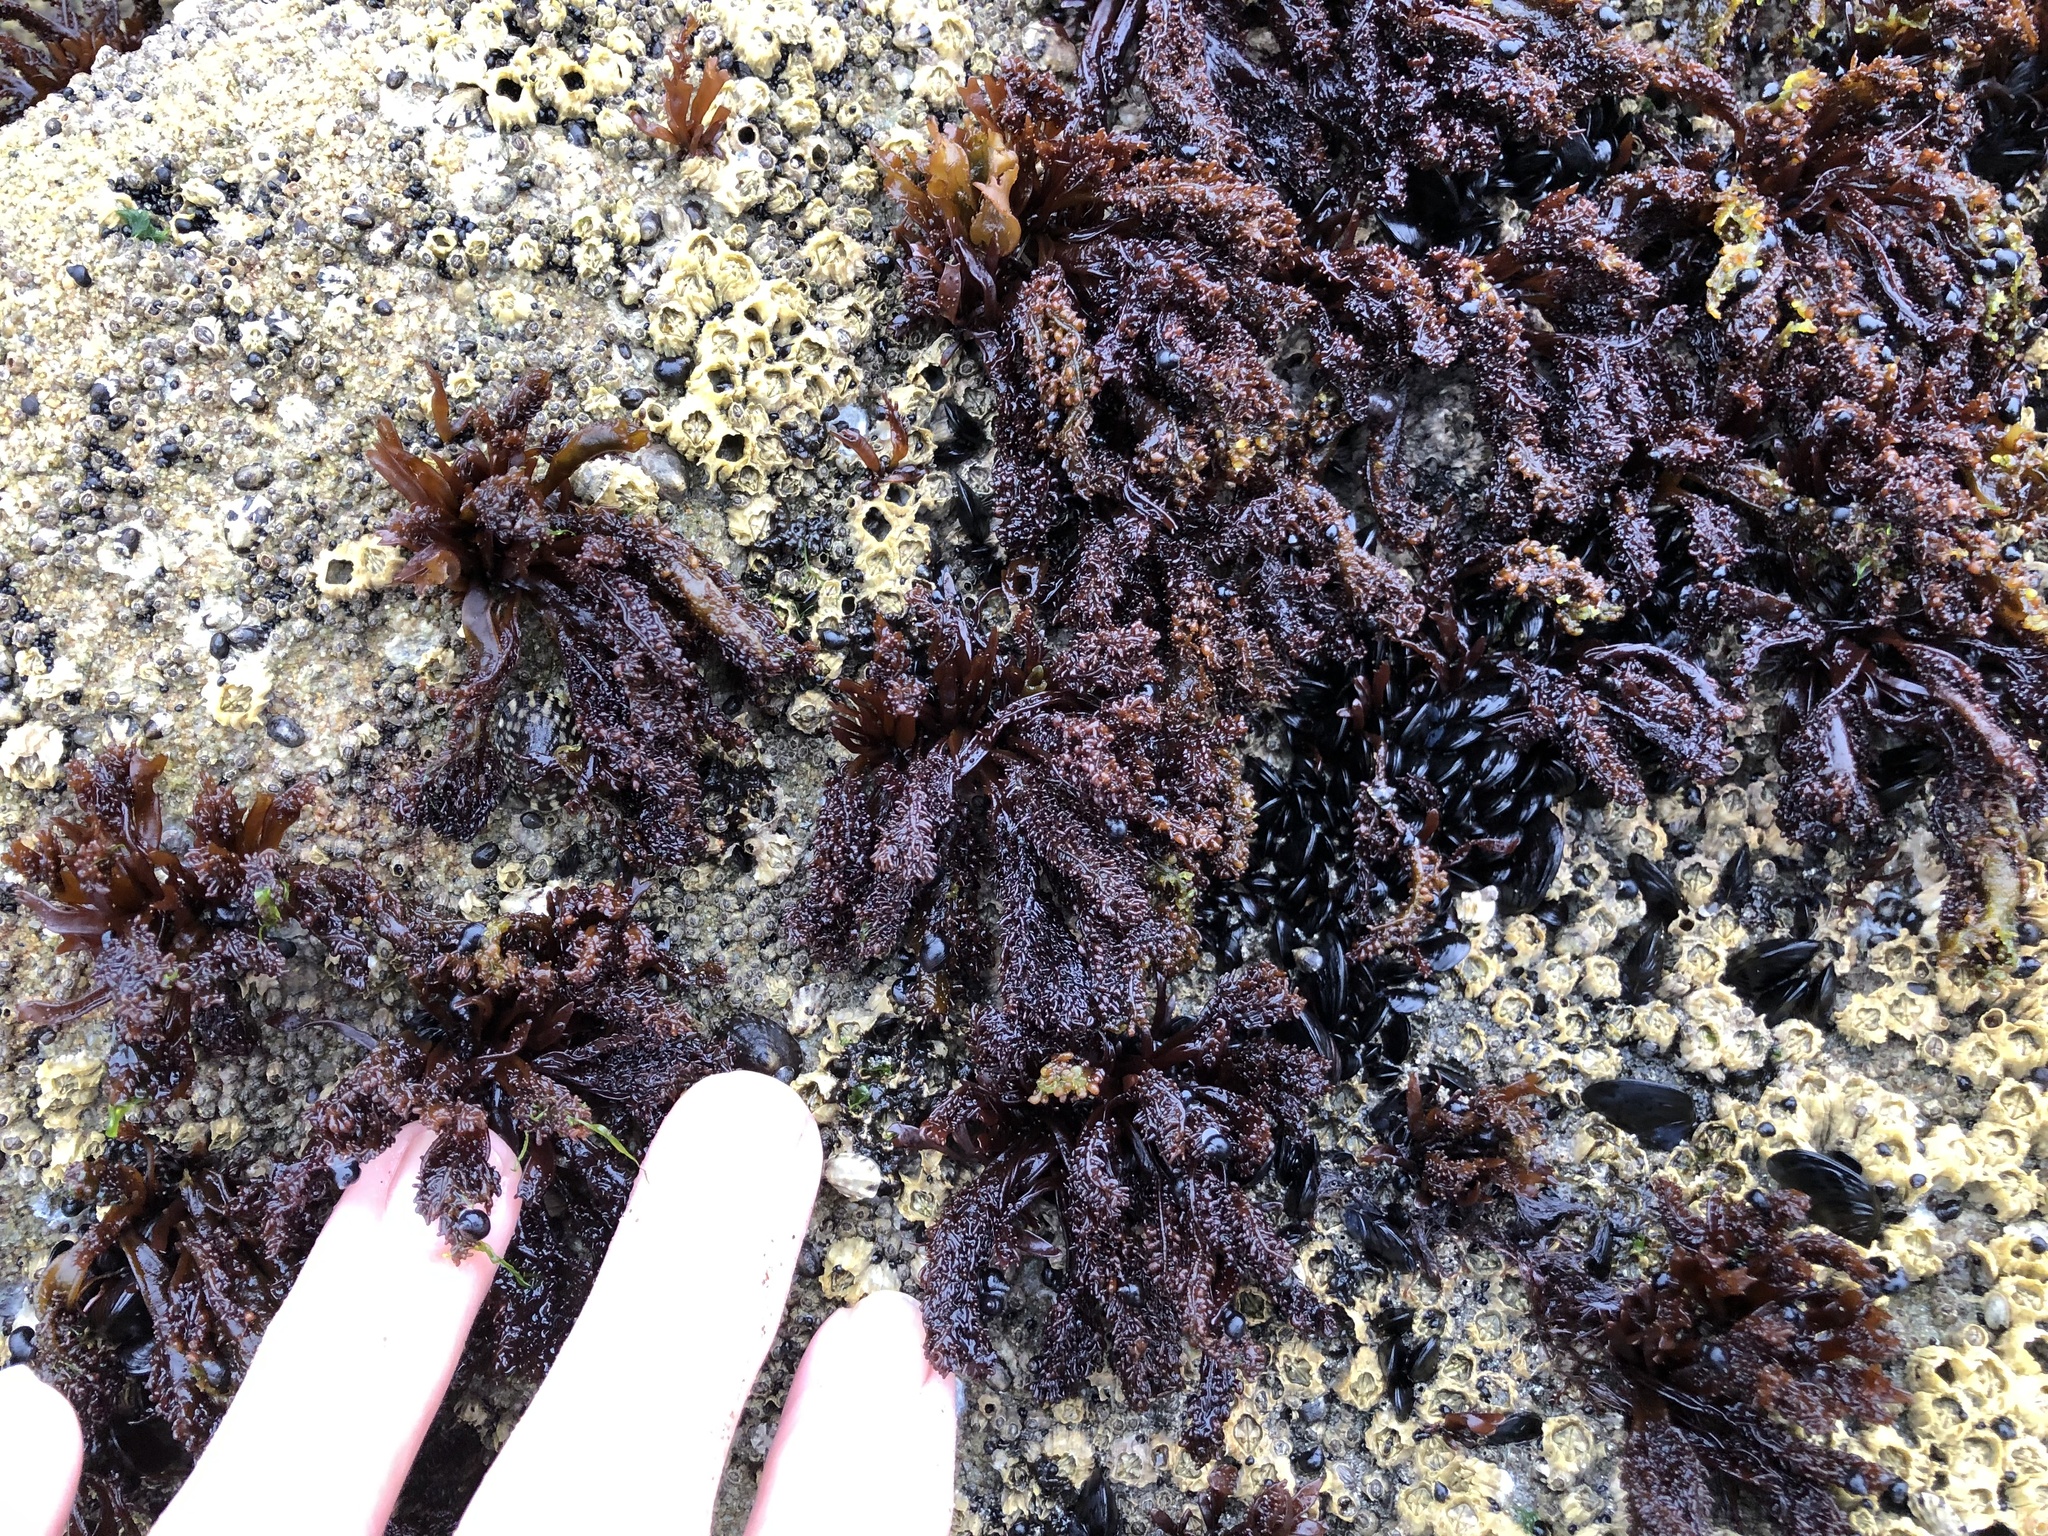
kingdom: Plantae
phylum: Rhodophyta
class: Florideophyceae
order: Gigartinales
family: Phyllophoraceae
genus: Mastocarpus
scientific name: Mastocarpus papillatus
